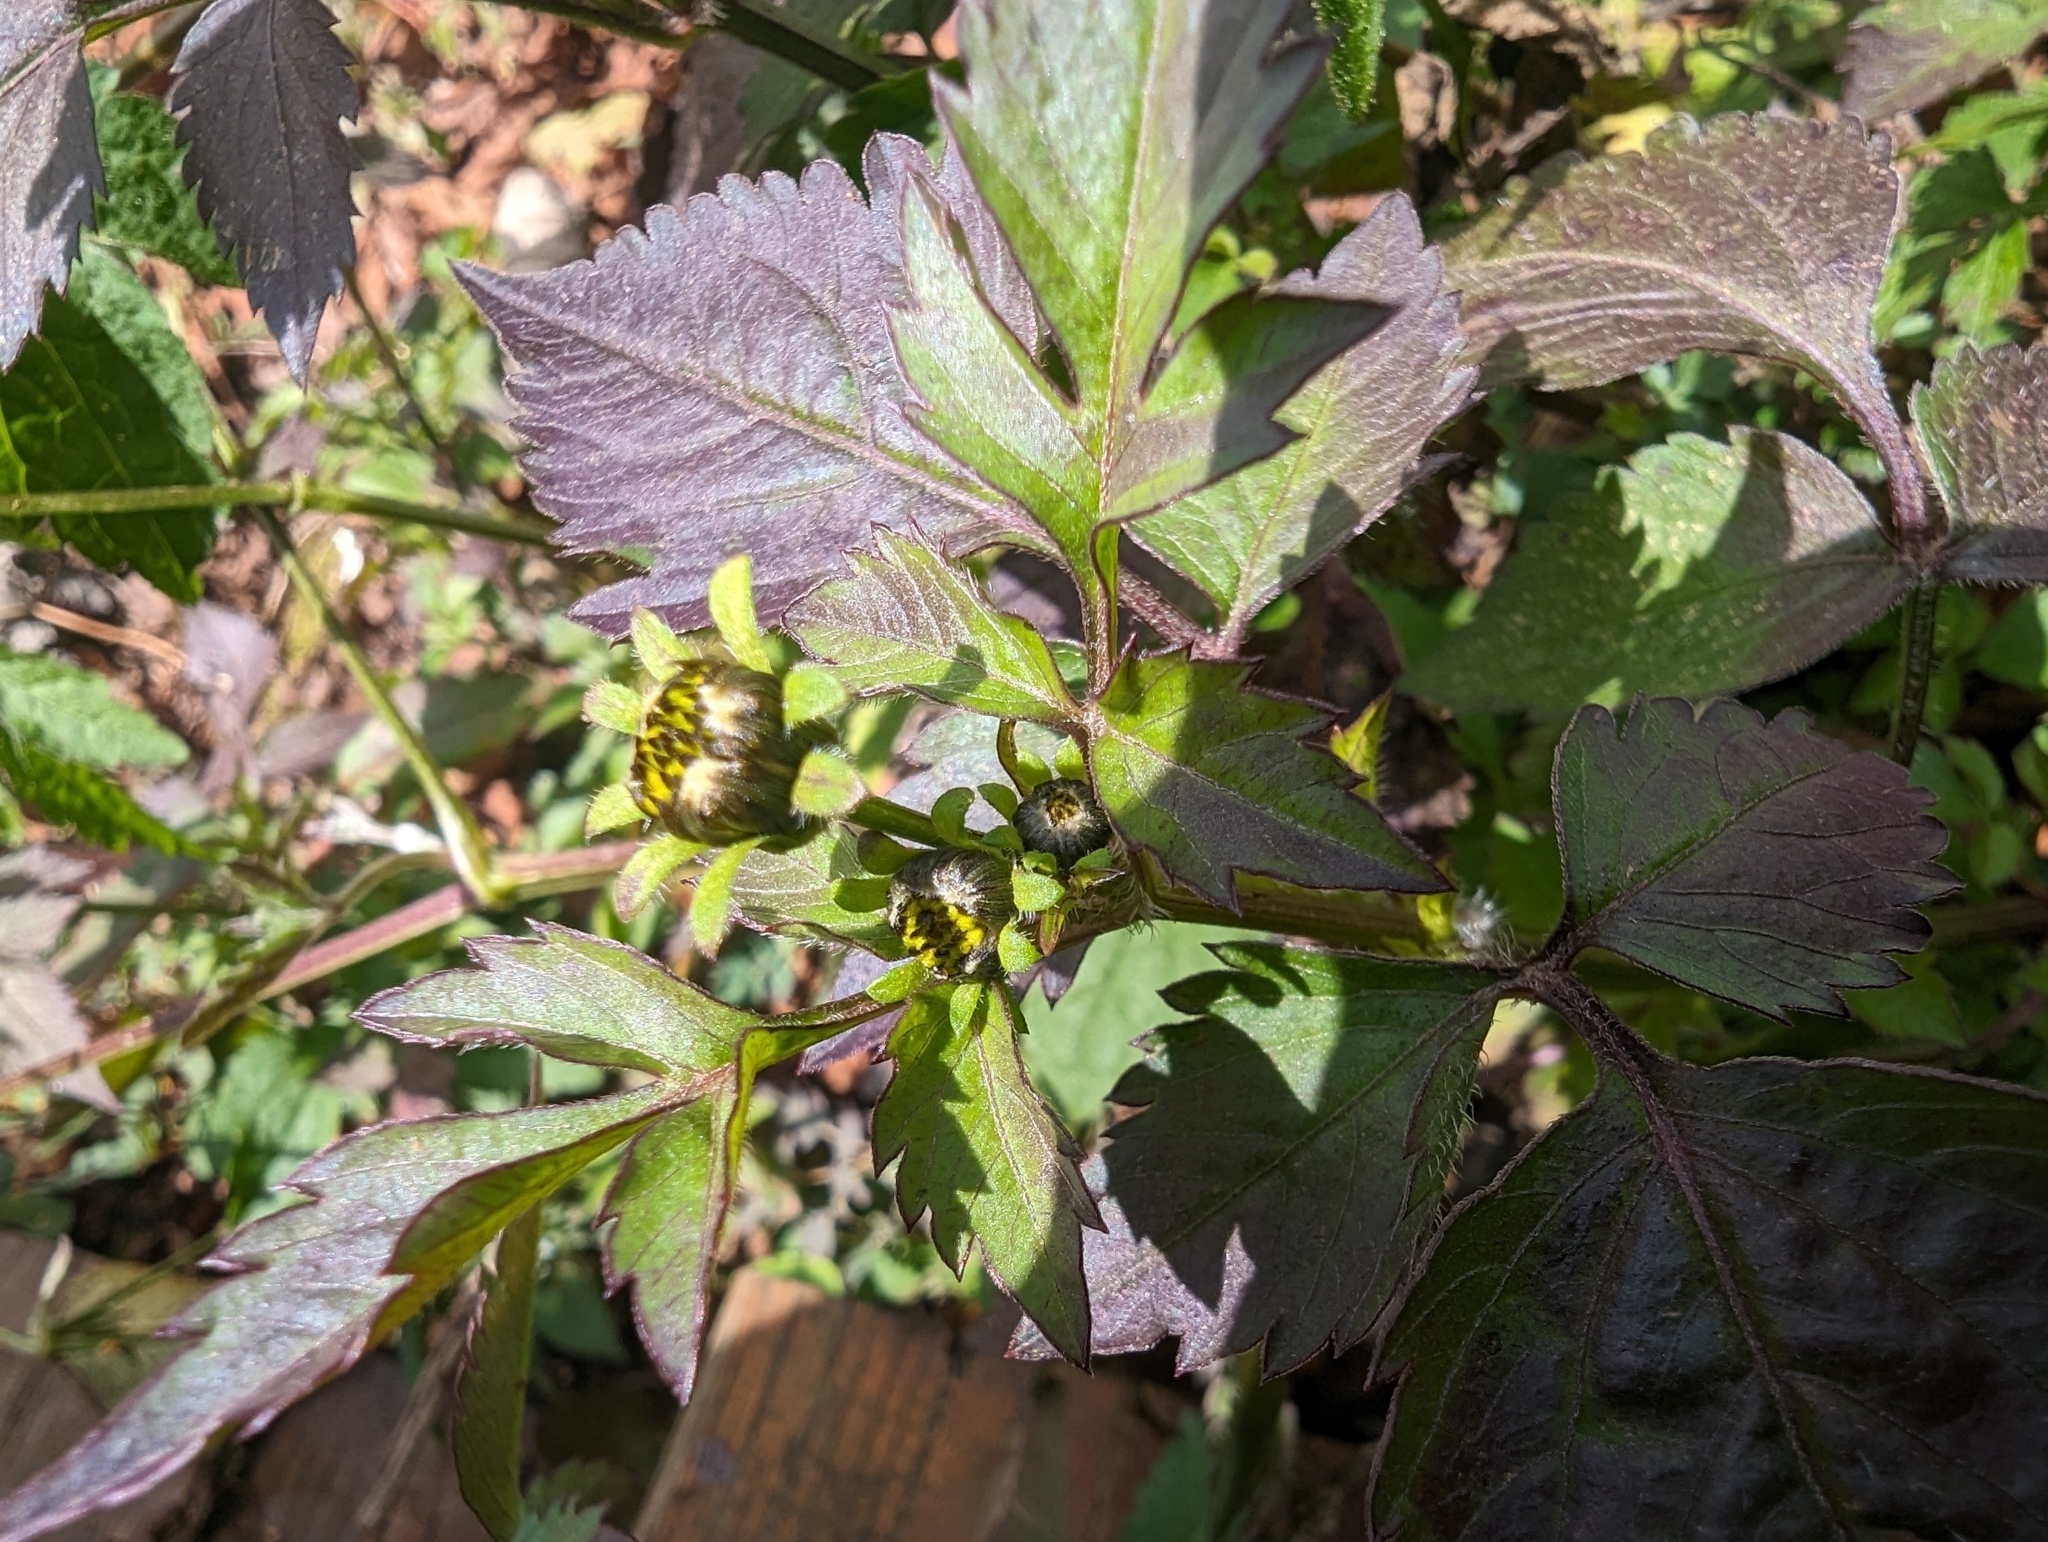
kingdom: Plantae
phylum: Tracheophyta
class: Magnoliopsida
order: Asterales
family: Asteraceae
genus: Bidens
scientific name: Bidens pilosa
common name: Black-jack
